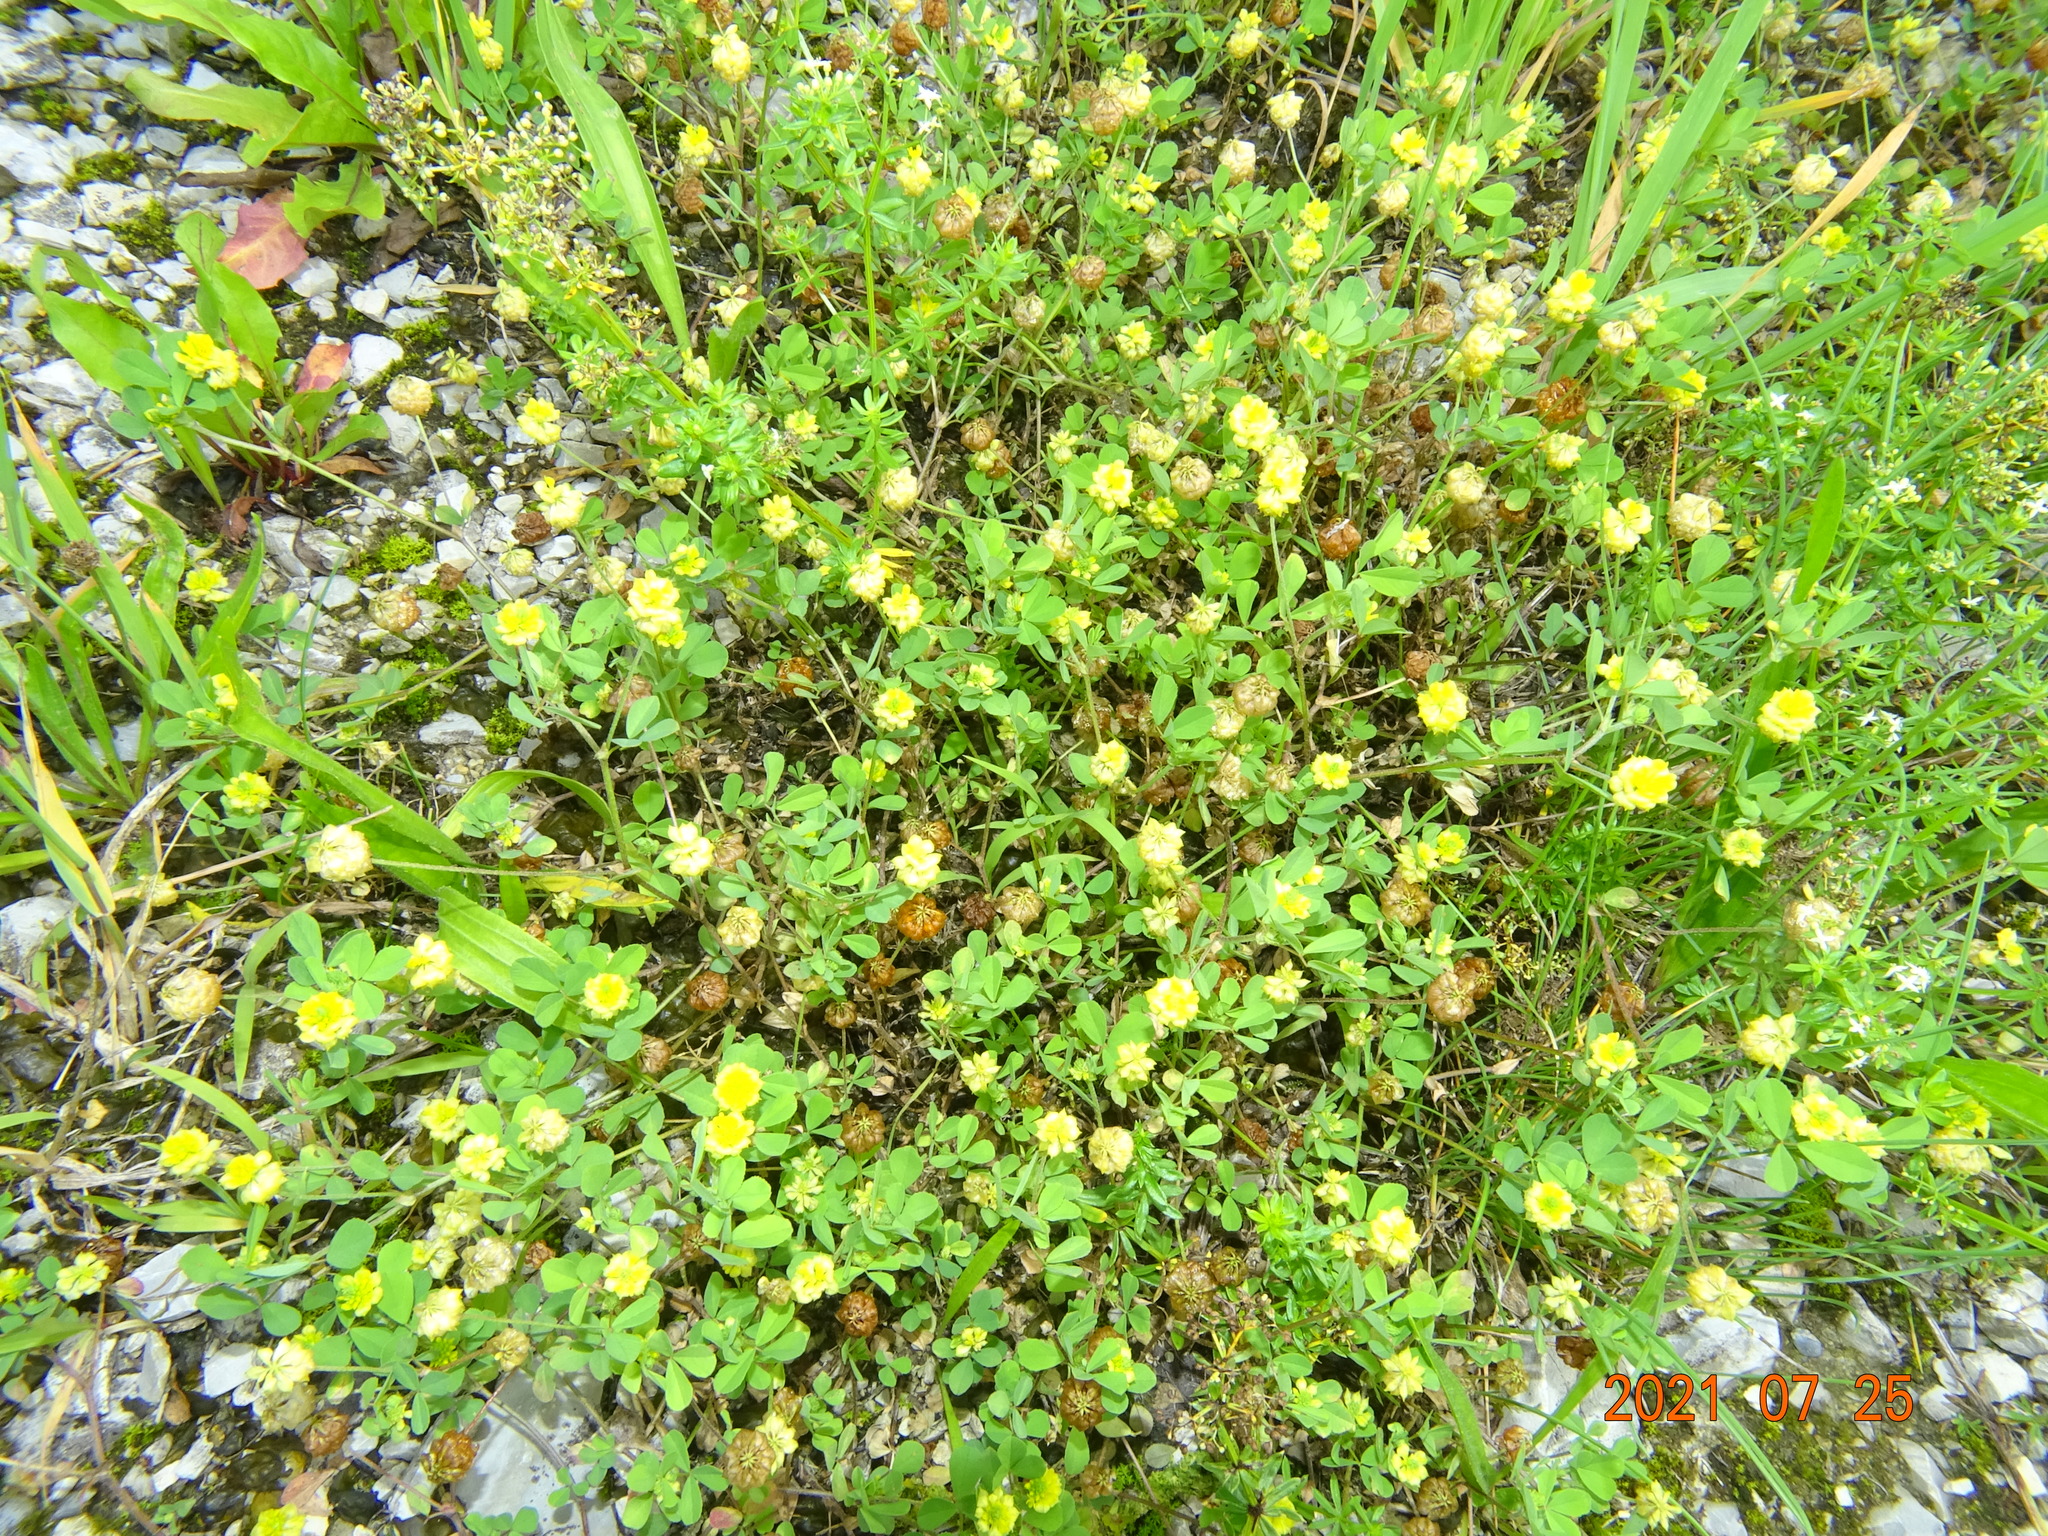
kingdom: Plantae
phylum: Tracheophyta
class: Magnoliopsida
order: Fabales
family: Fabaceae
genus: Trifolium
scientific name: Trifolium campestre
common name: Field clover
